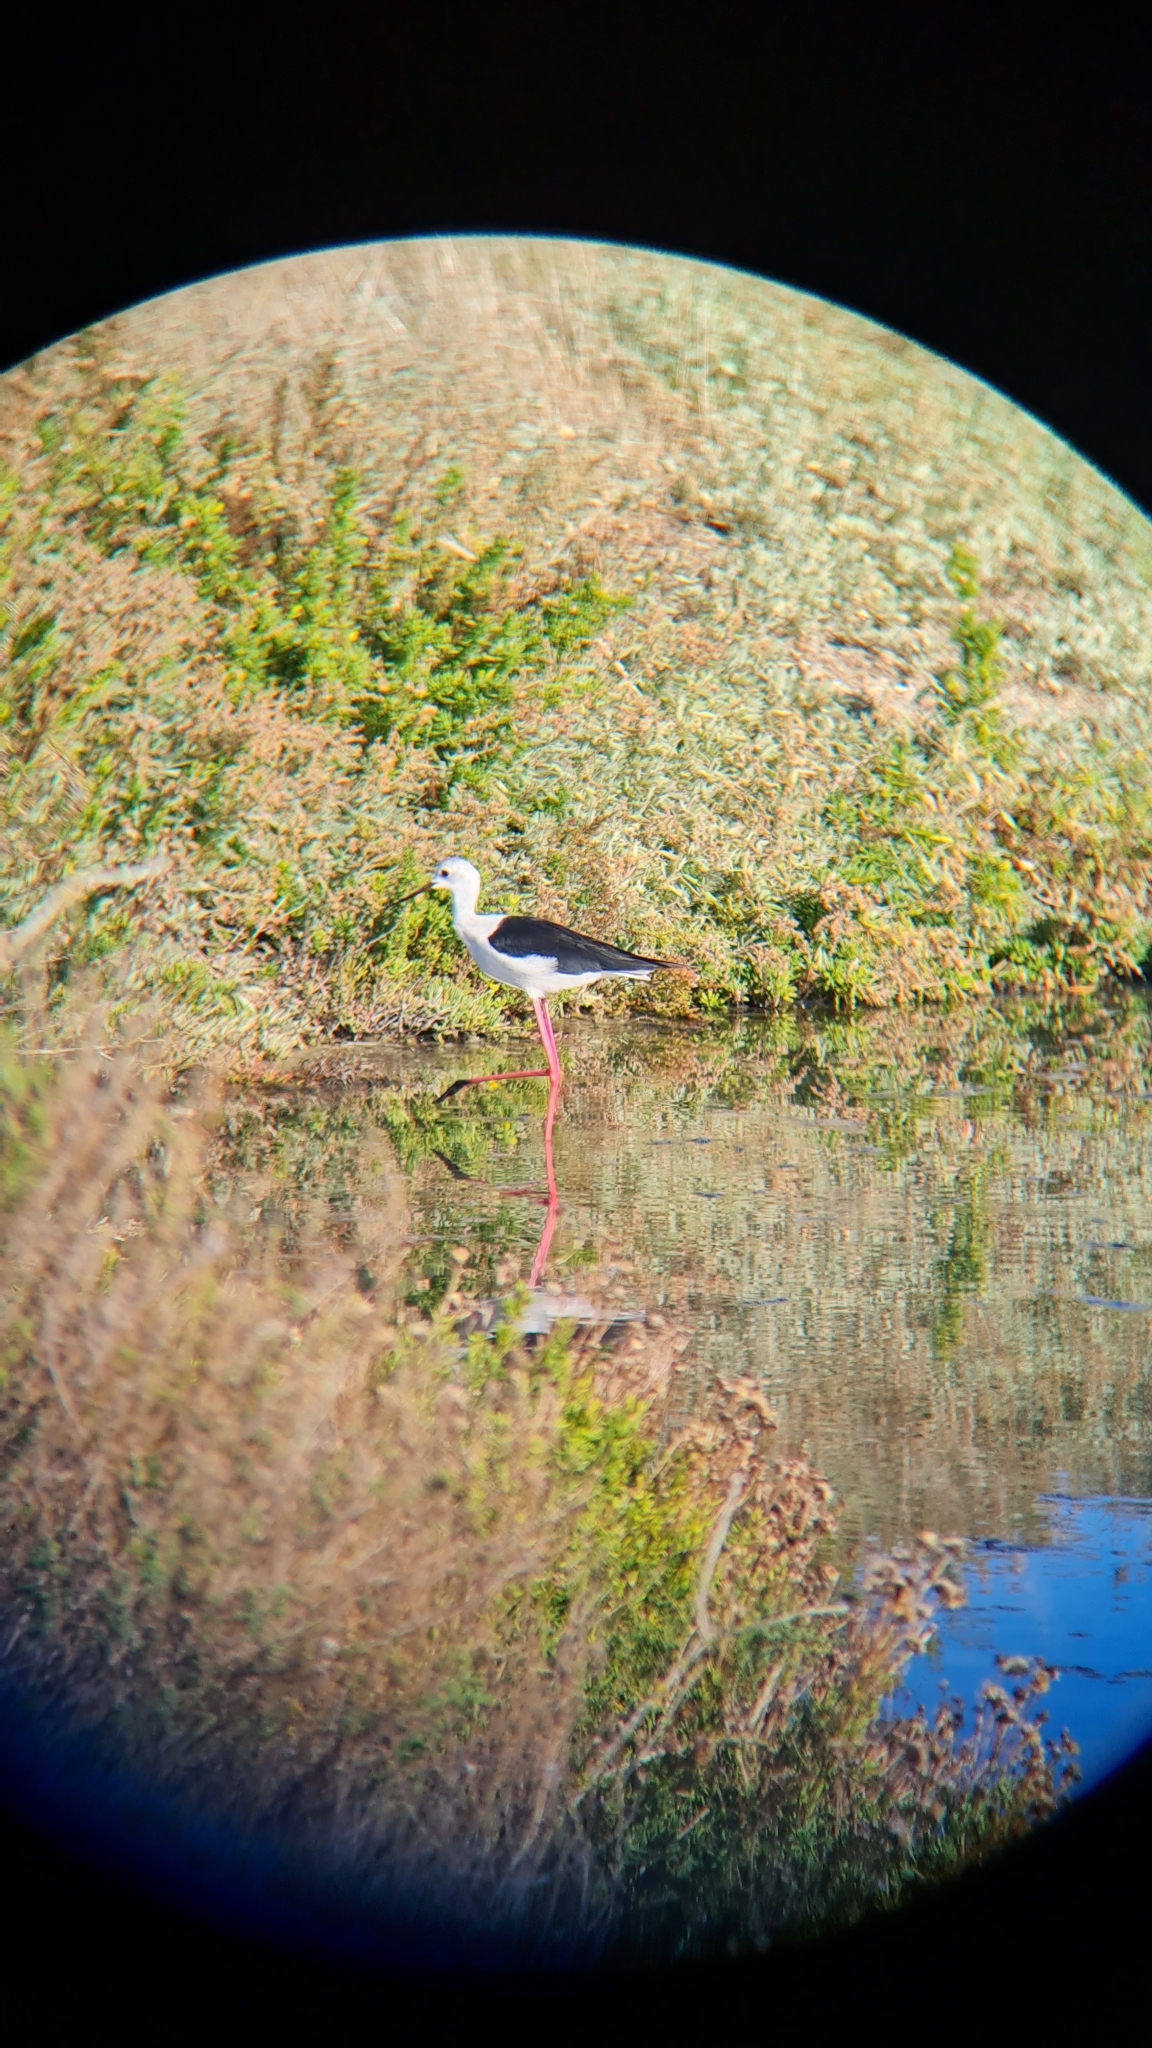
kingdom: Animalia
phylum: Chordata
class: Aves
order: Charadriiformes
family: Recurvirostridae
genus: Himantopus
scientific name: Himantopus himantopus
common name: Black-winged stilt
